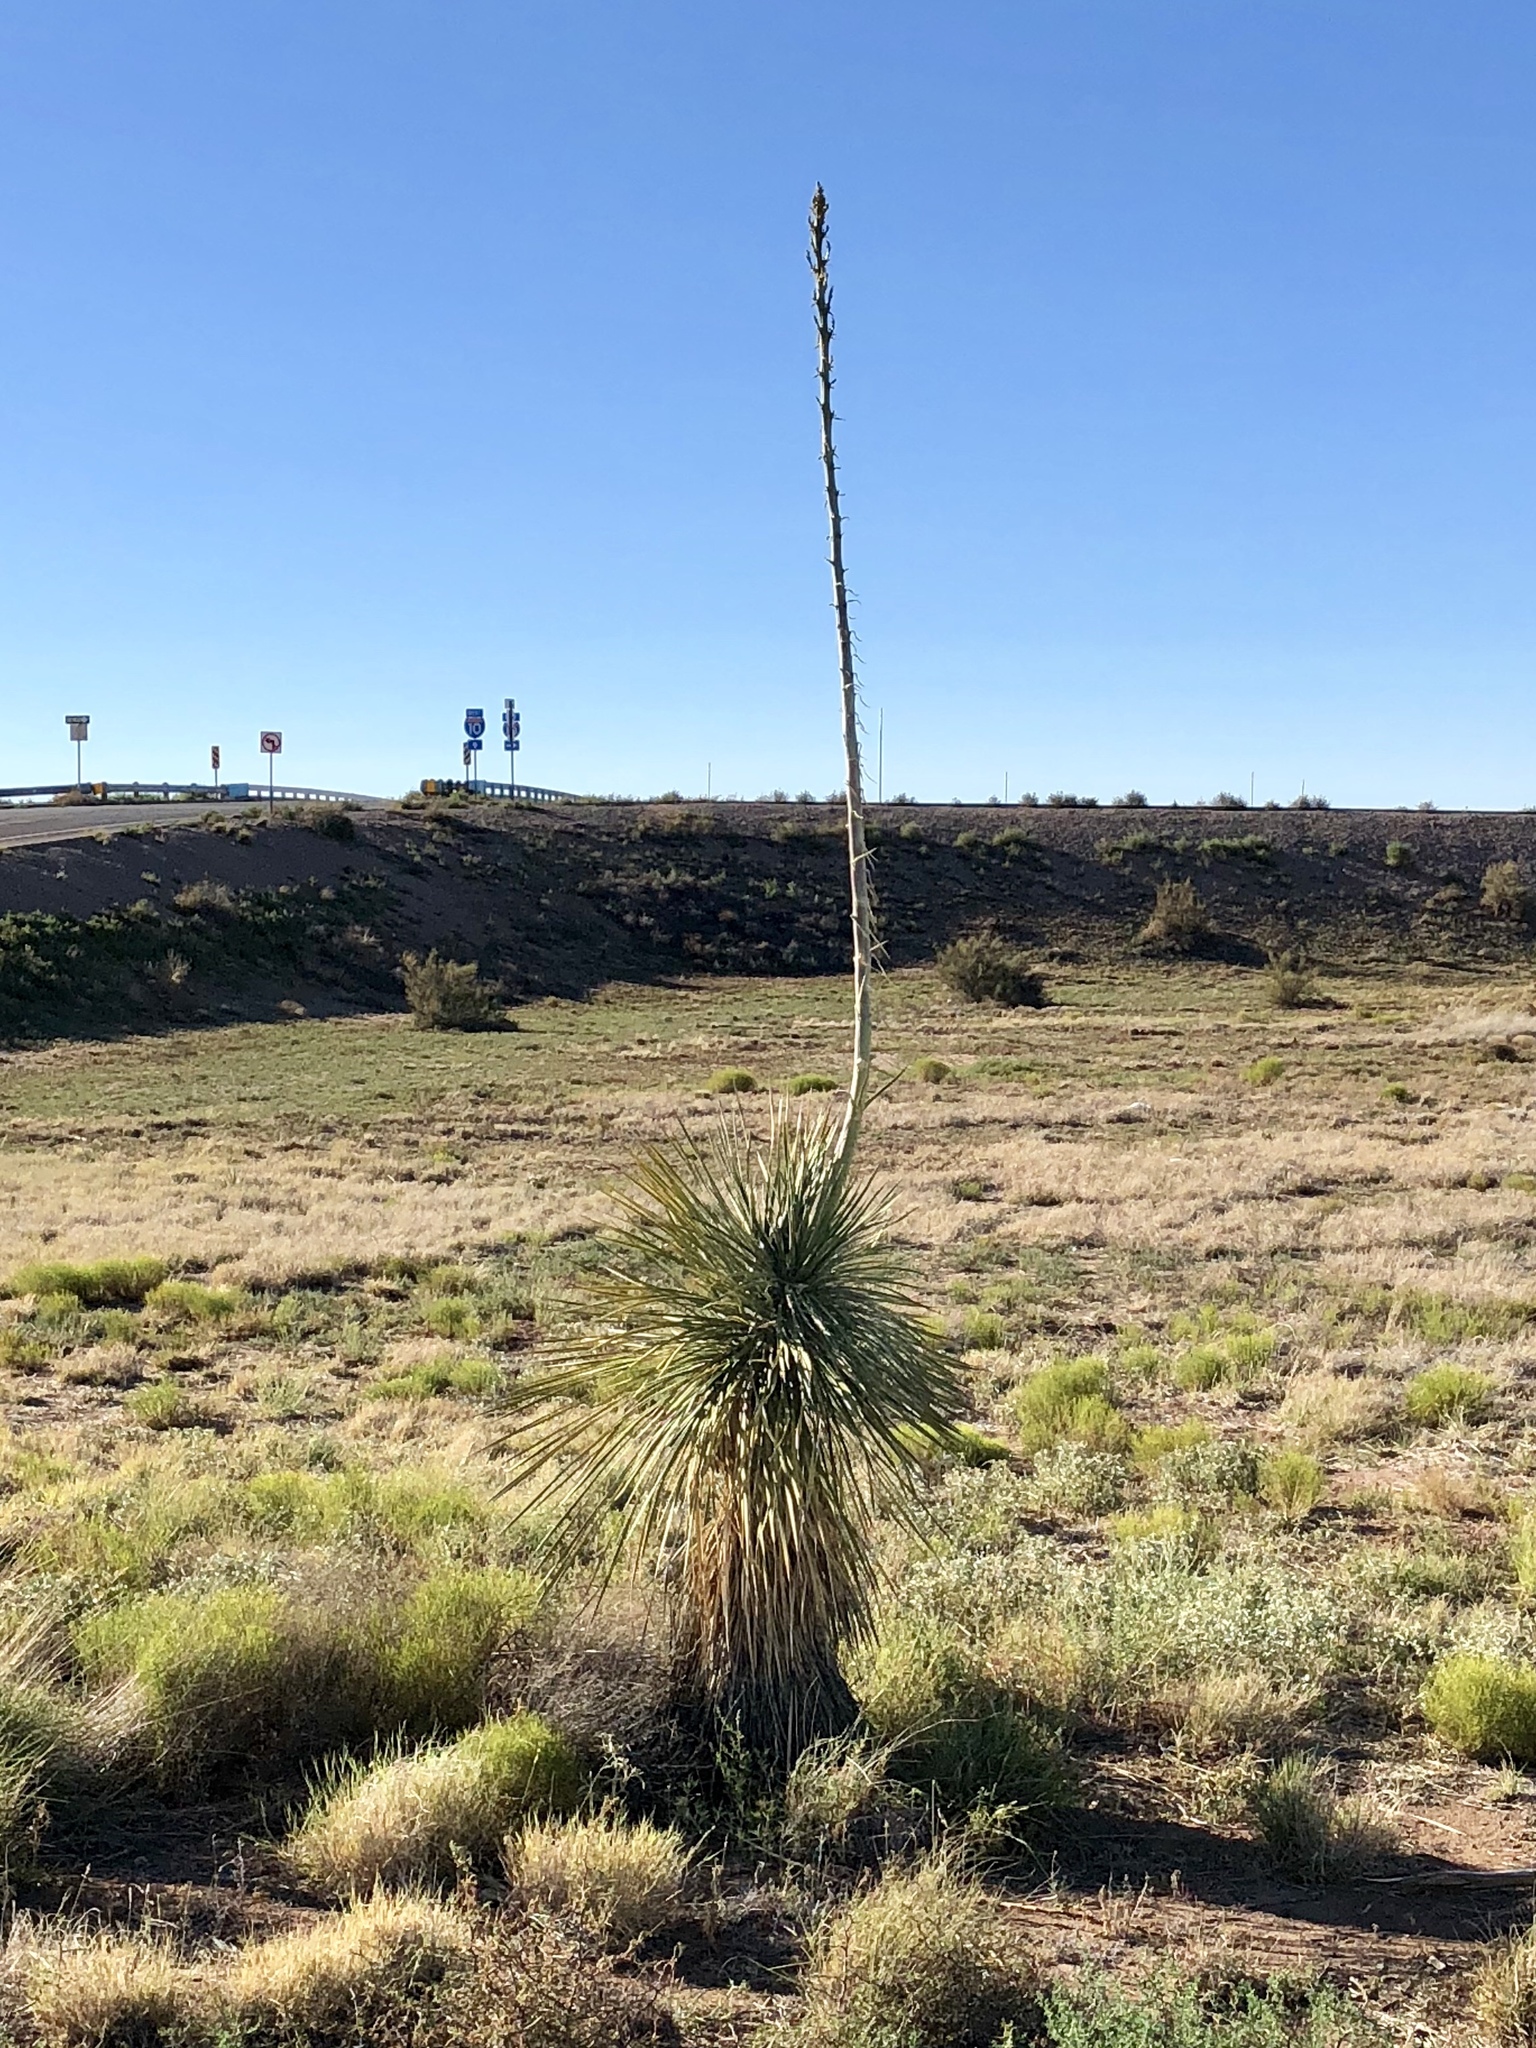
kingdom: Plantae
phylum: Tracheophyta
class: Liliopsida
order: Asparagales
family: Asparagaceae
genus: Yucca
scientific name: Yucca elata
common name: Palmella
